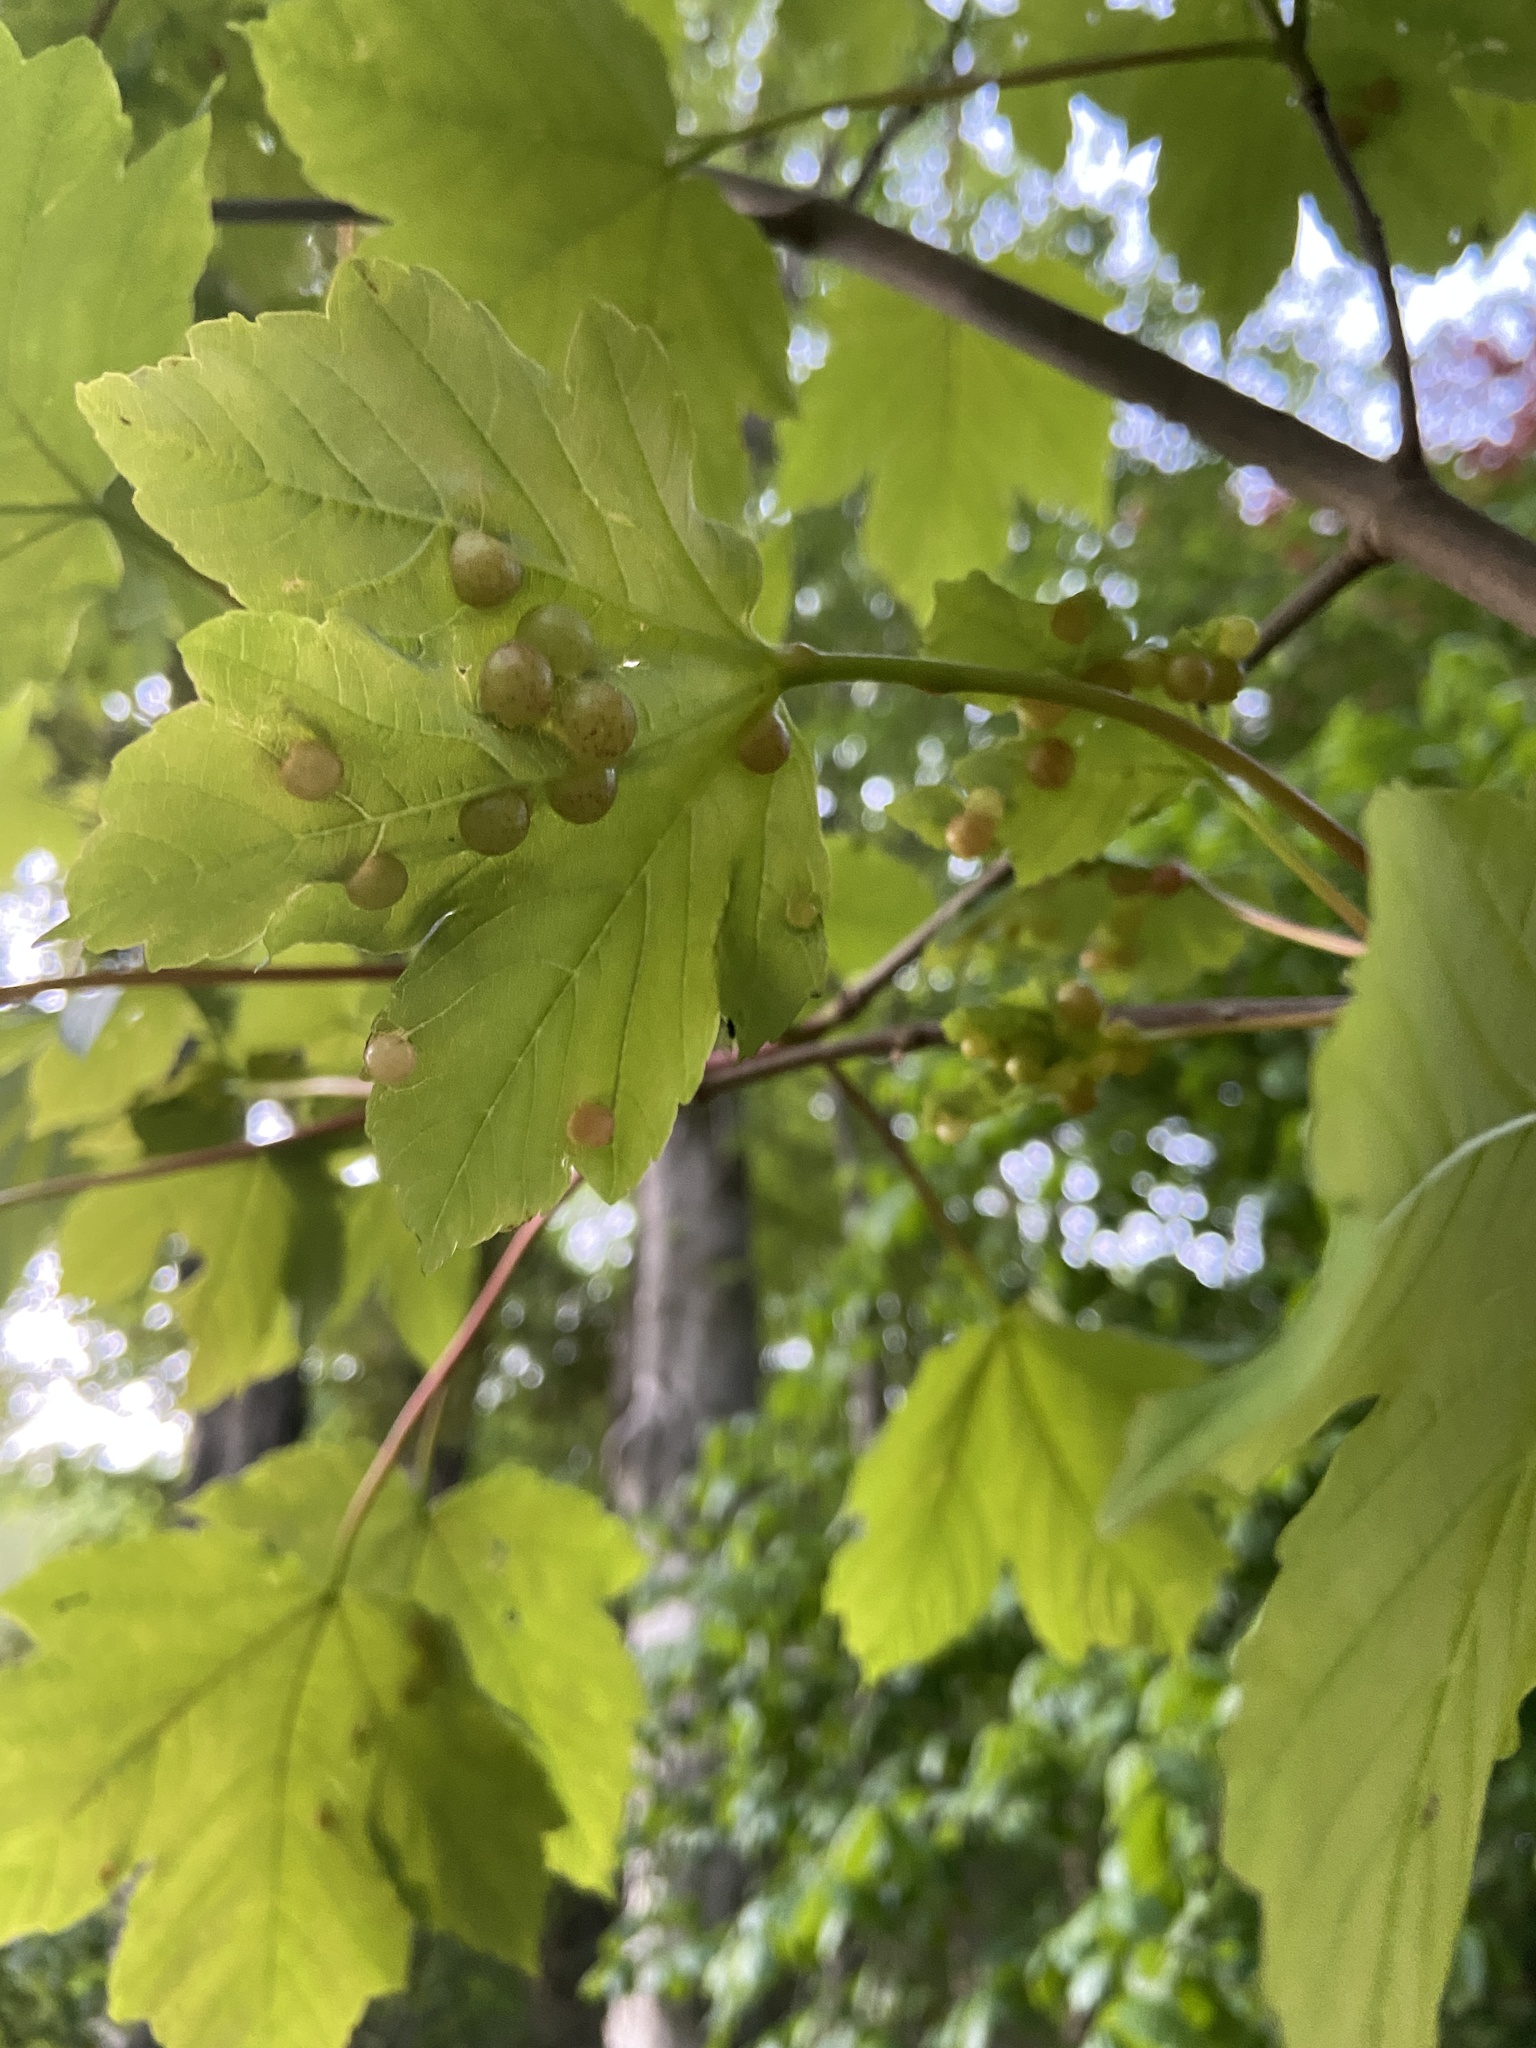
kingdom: Animalia
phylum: Arthropoda
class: Insecta
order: Hymenoptera
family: Cynipidae
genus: Pediaspis
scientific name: Pediaspis aceris
